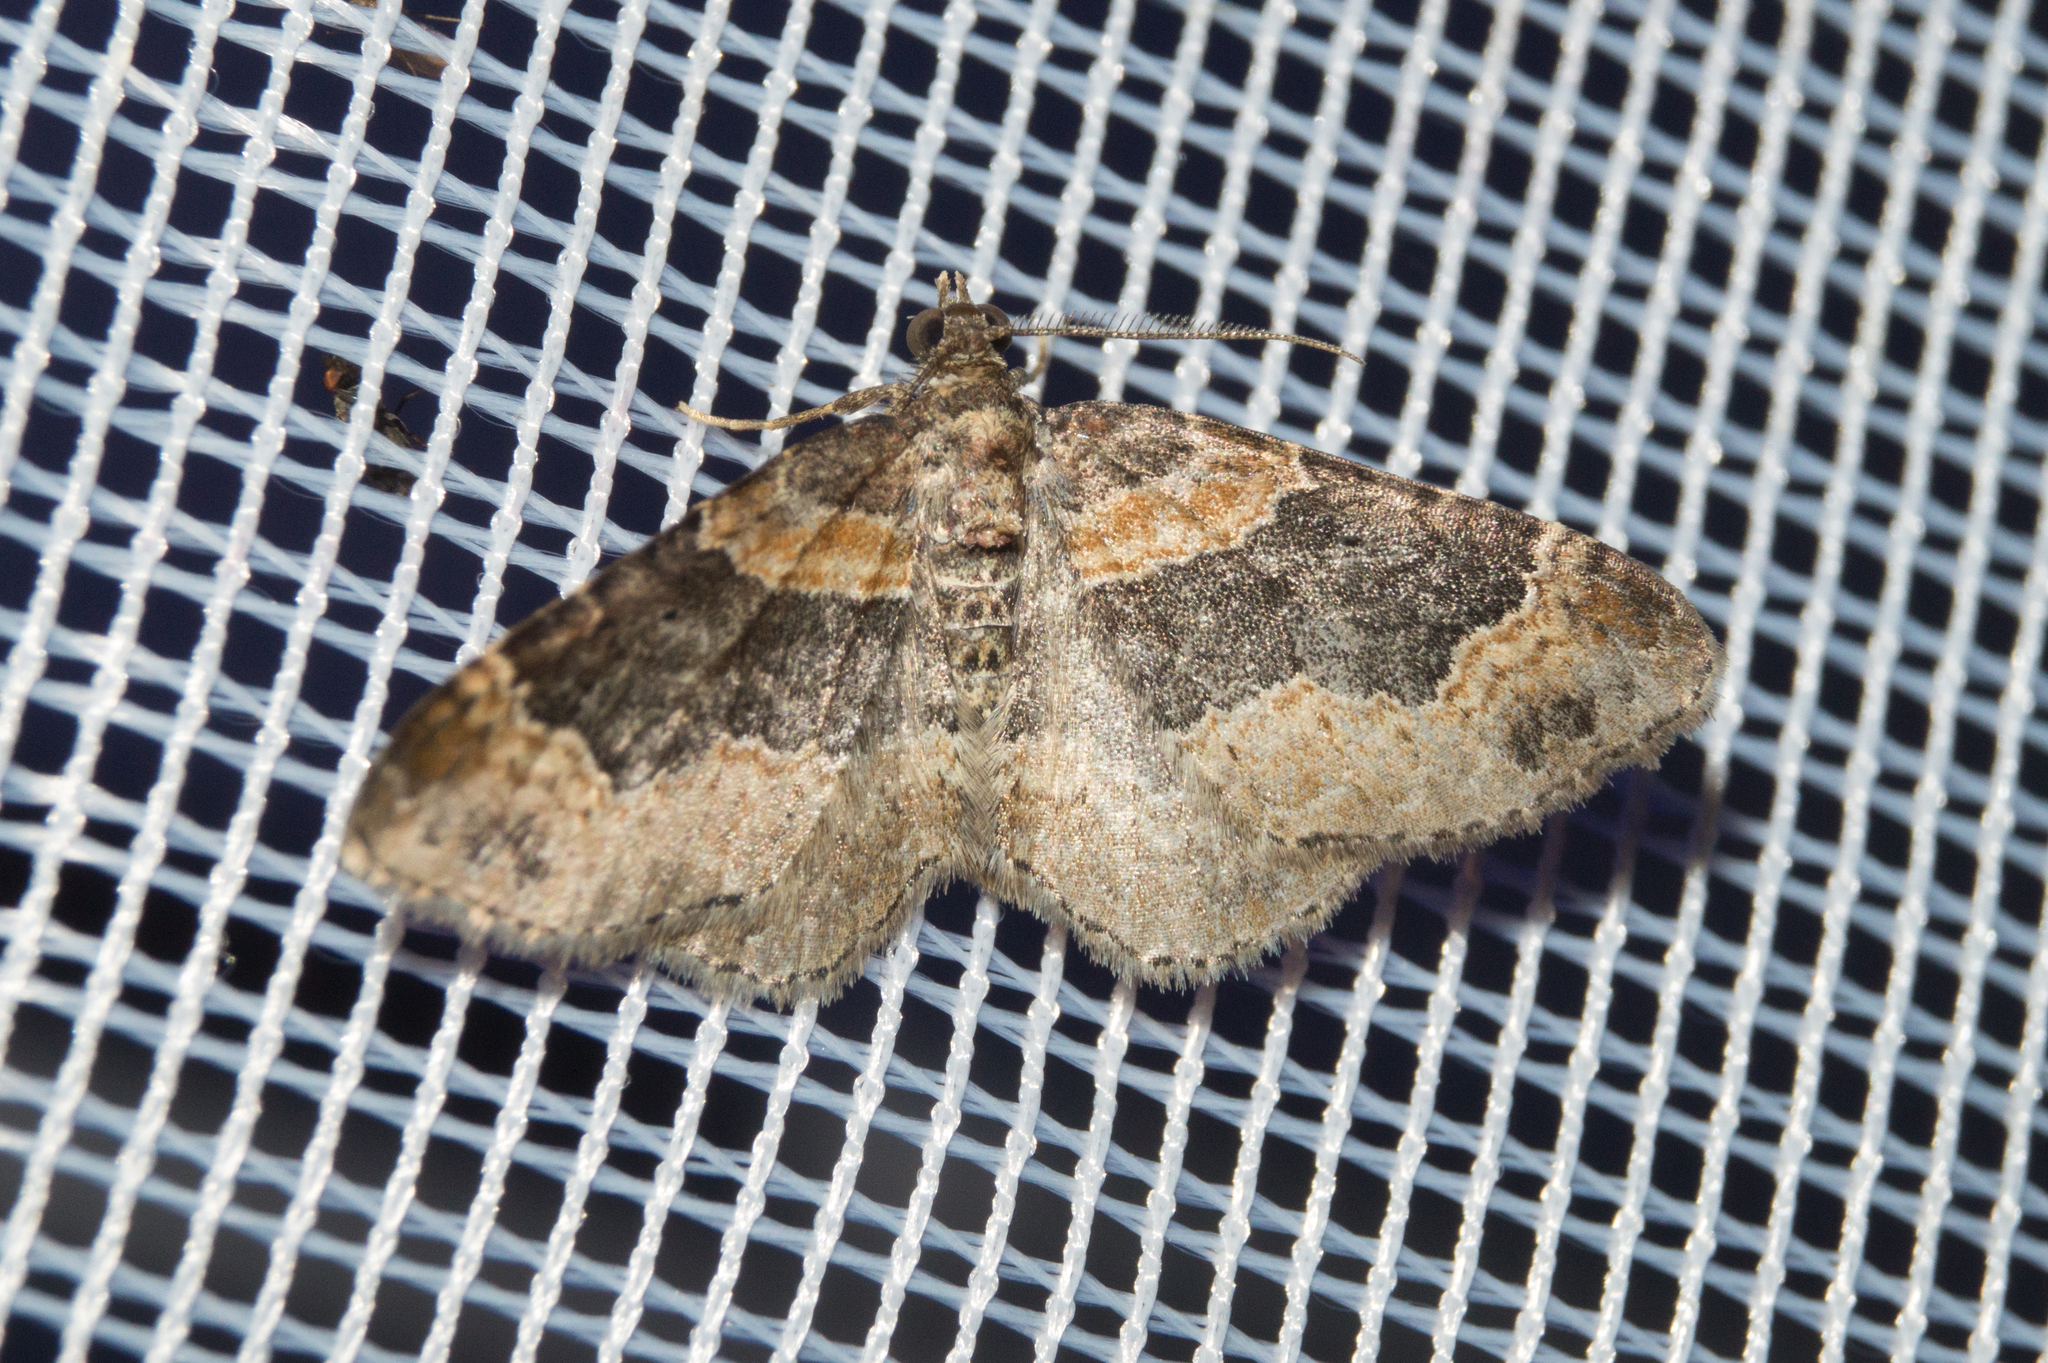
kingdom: Animalia
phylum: Arthropoda
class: Insecta
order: Lepidoptera
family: Geometridae
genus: Xanthorhoe
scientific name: Xanthorhoe ferrugata
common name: Dark-barred twin-spot carpet
